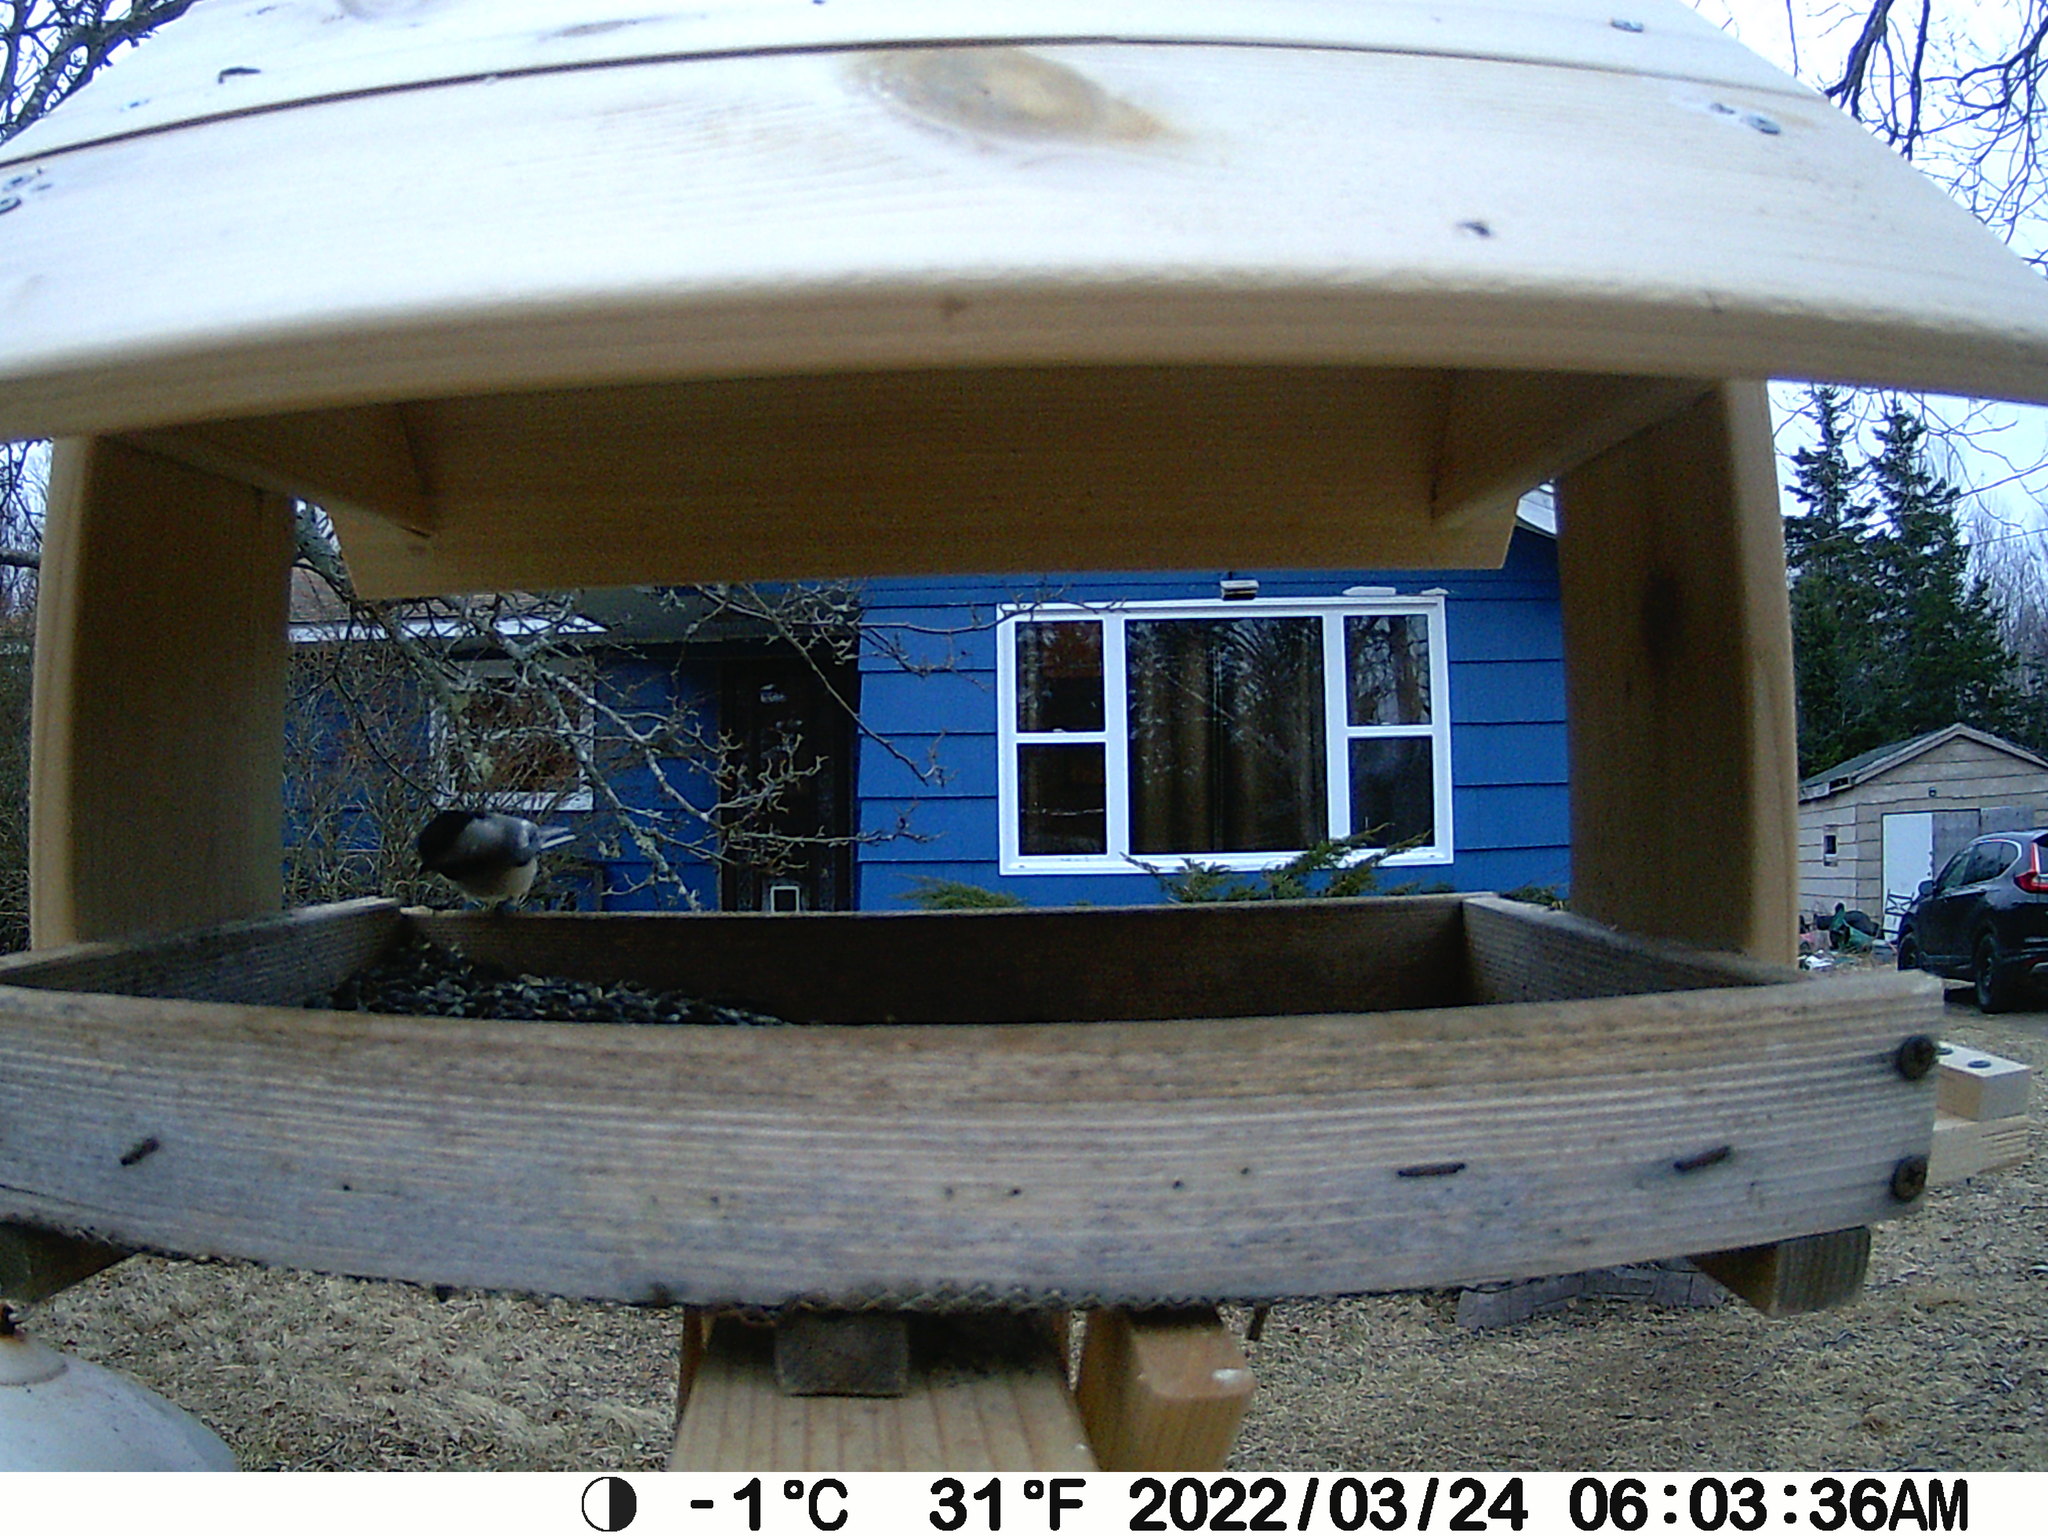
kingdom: Animalia
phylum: Chordata
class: Aves
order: Passeriformes
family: Paridae
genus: Poecile
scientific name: Poecile atricapillus
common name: Black-capped chickadee
